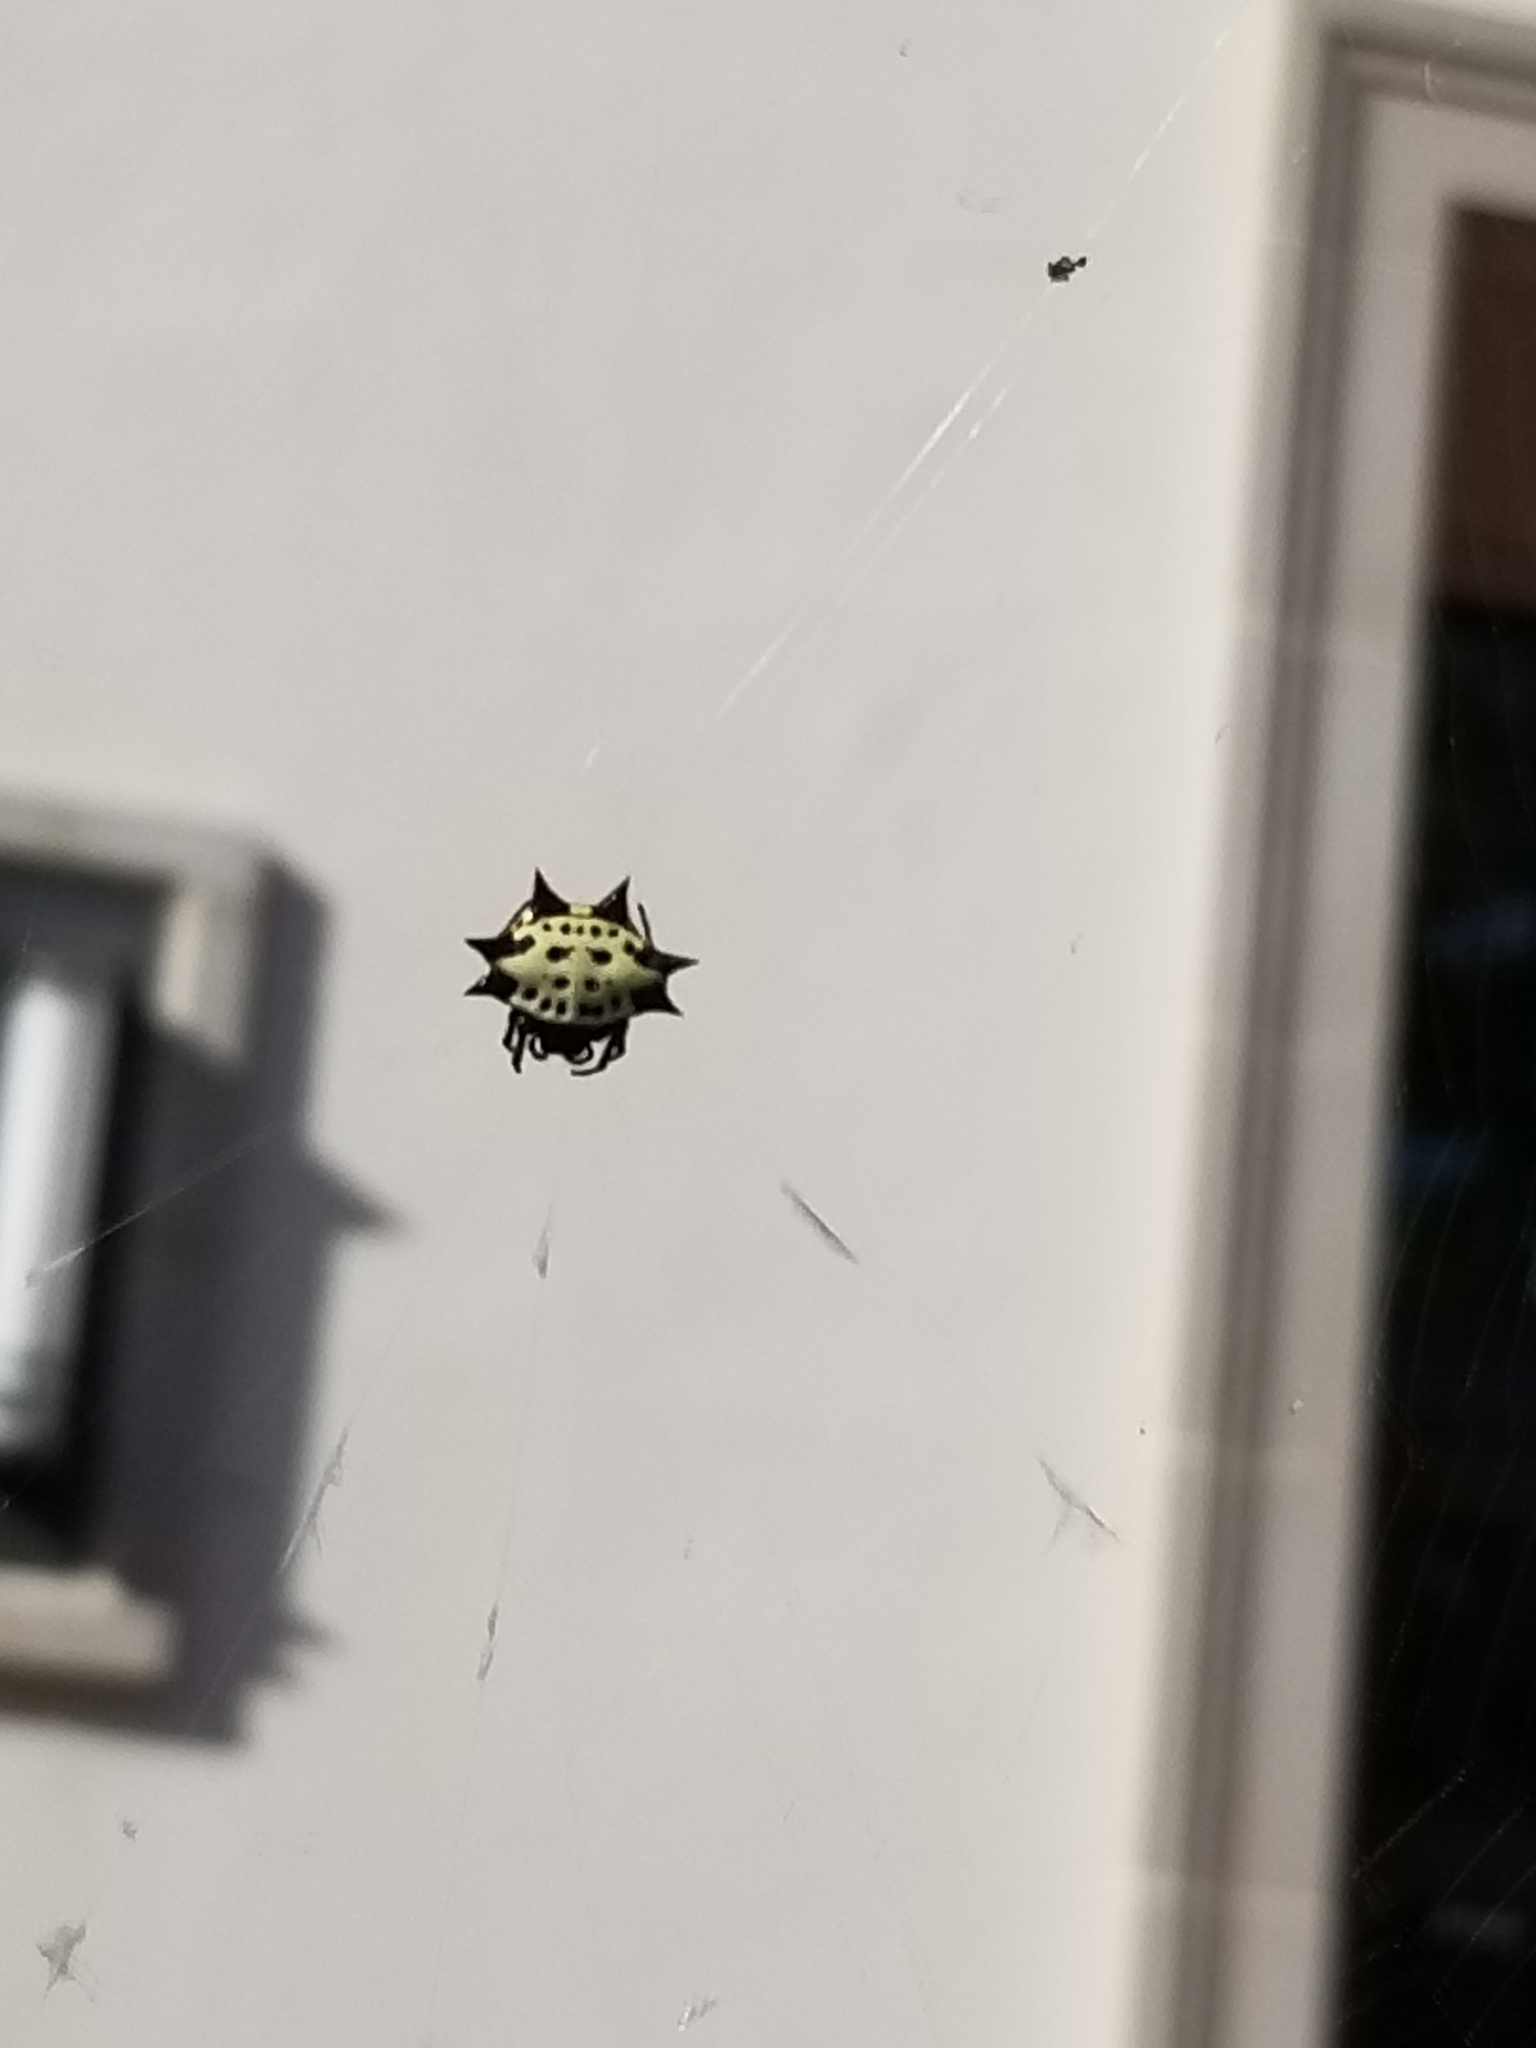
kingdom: Animalia
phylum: Arthropoda
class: Arachnida
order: Araneae
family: Araneidae
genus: Gasteracantha
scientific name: Gasteracantha cancriformis
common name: Orb weavers
